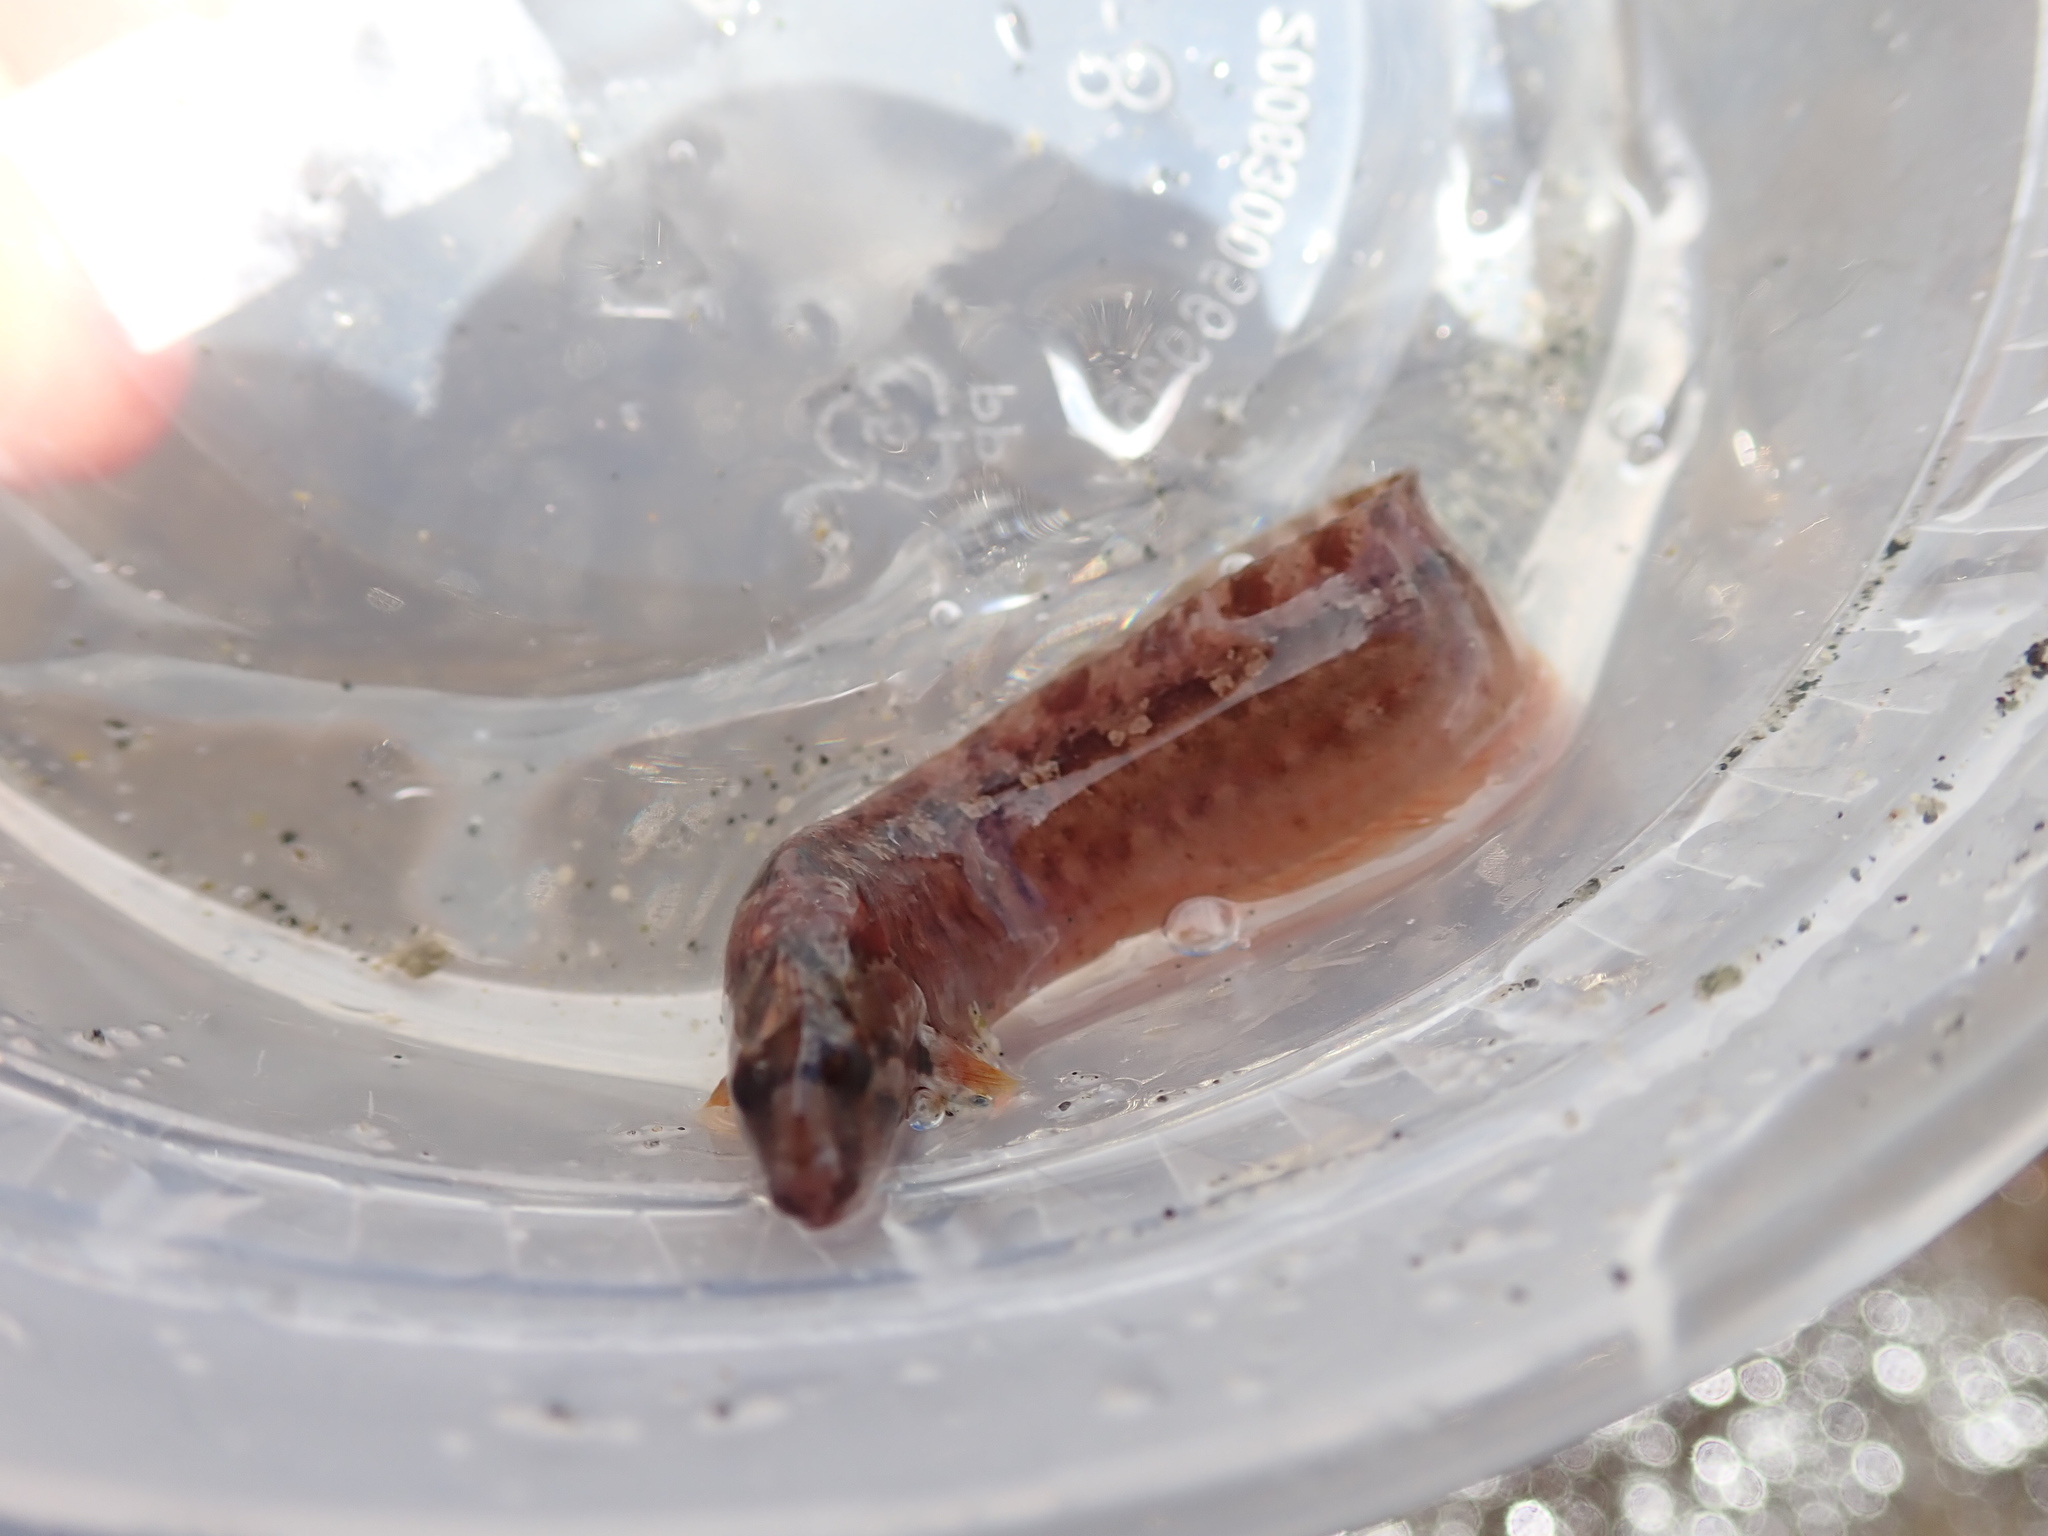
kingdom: Animalia
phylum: Chordata
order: Perciformes
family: Stichaeidae
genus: Anoplarchus
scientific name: Anoplarchus purpurescens
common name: High cockscomb
